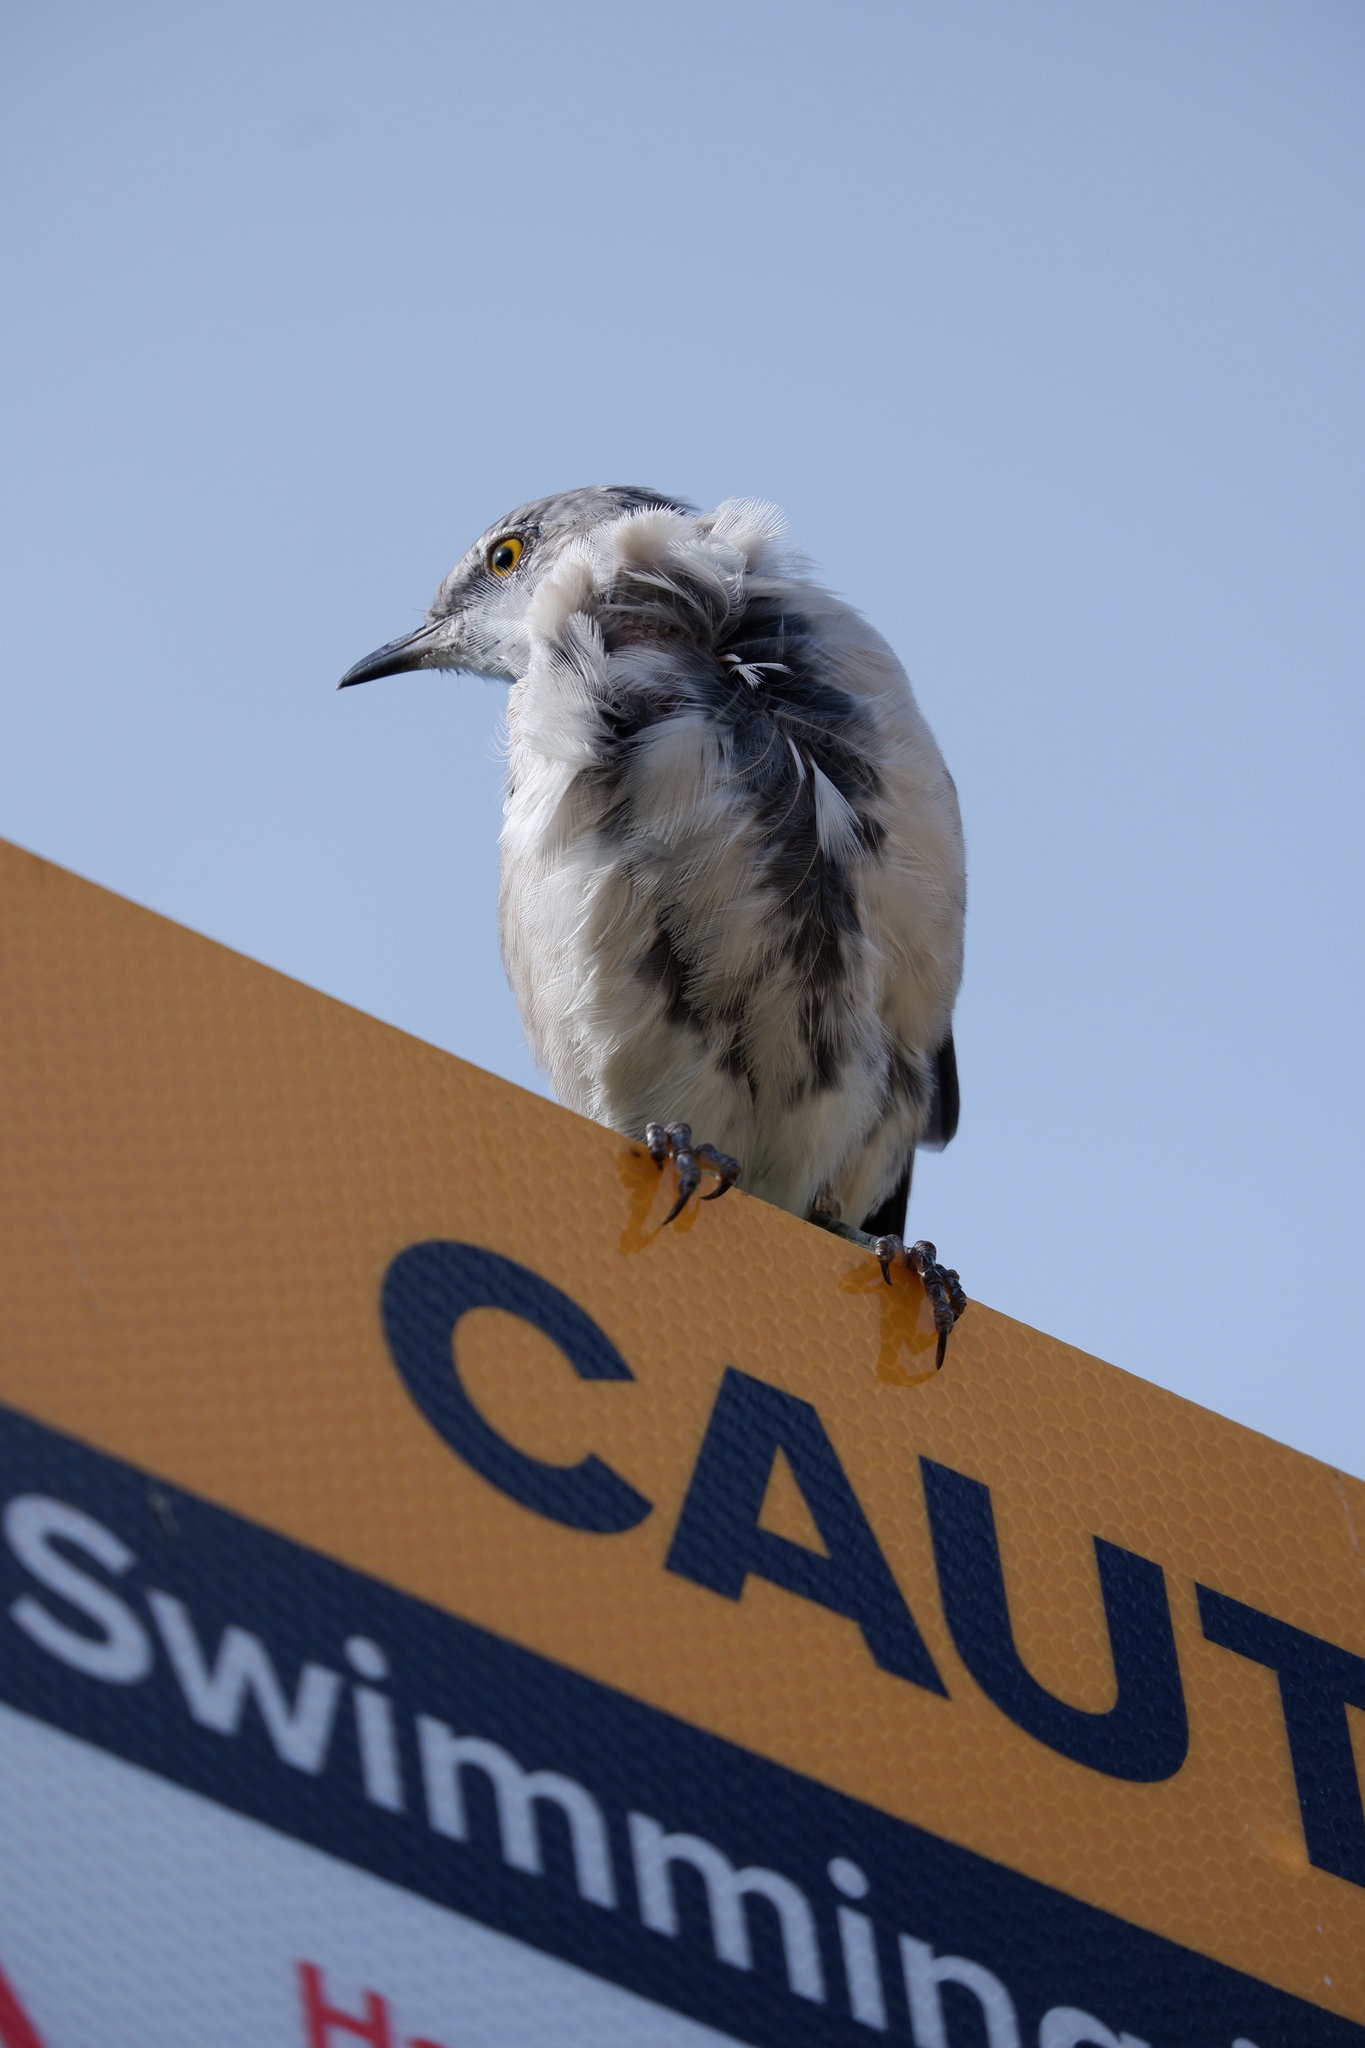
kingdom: Animalia
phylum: Chordata
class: Aves
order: Passeriformes
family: Mimidae
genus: Mimus
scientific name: Mimus polyglottos
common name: Northern mockingbird
